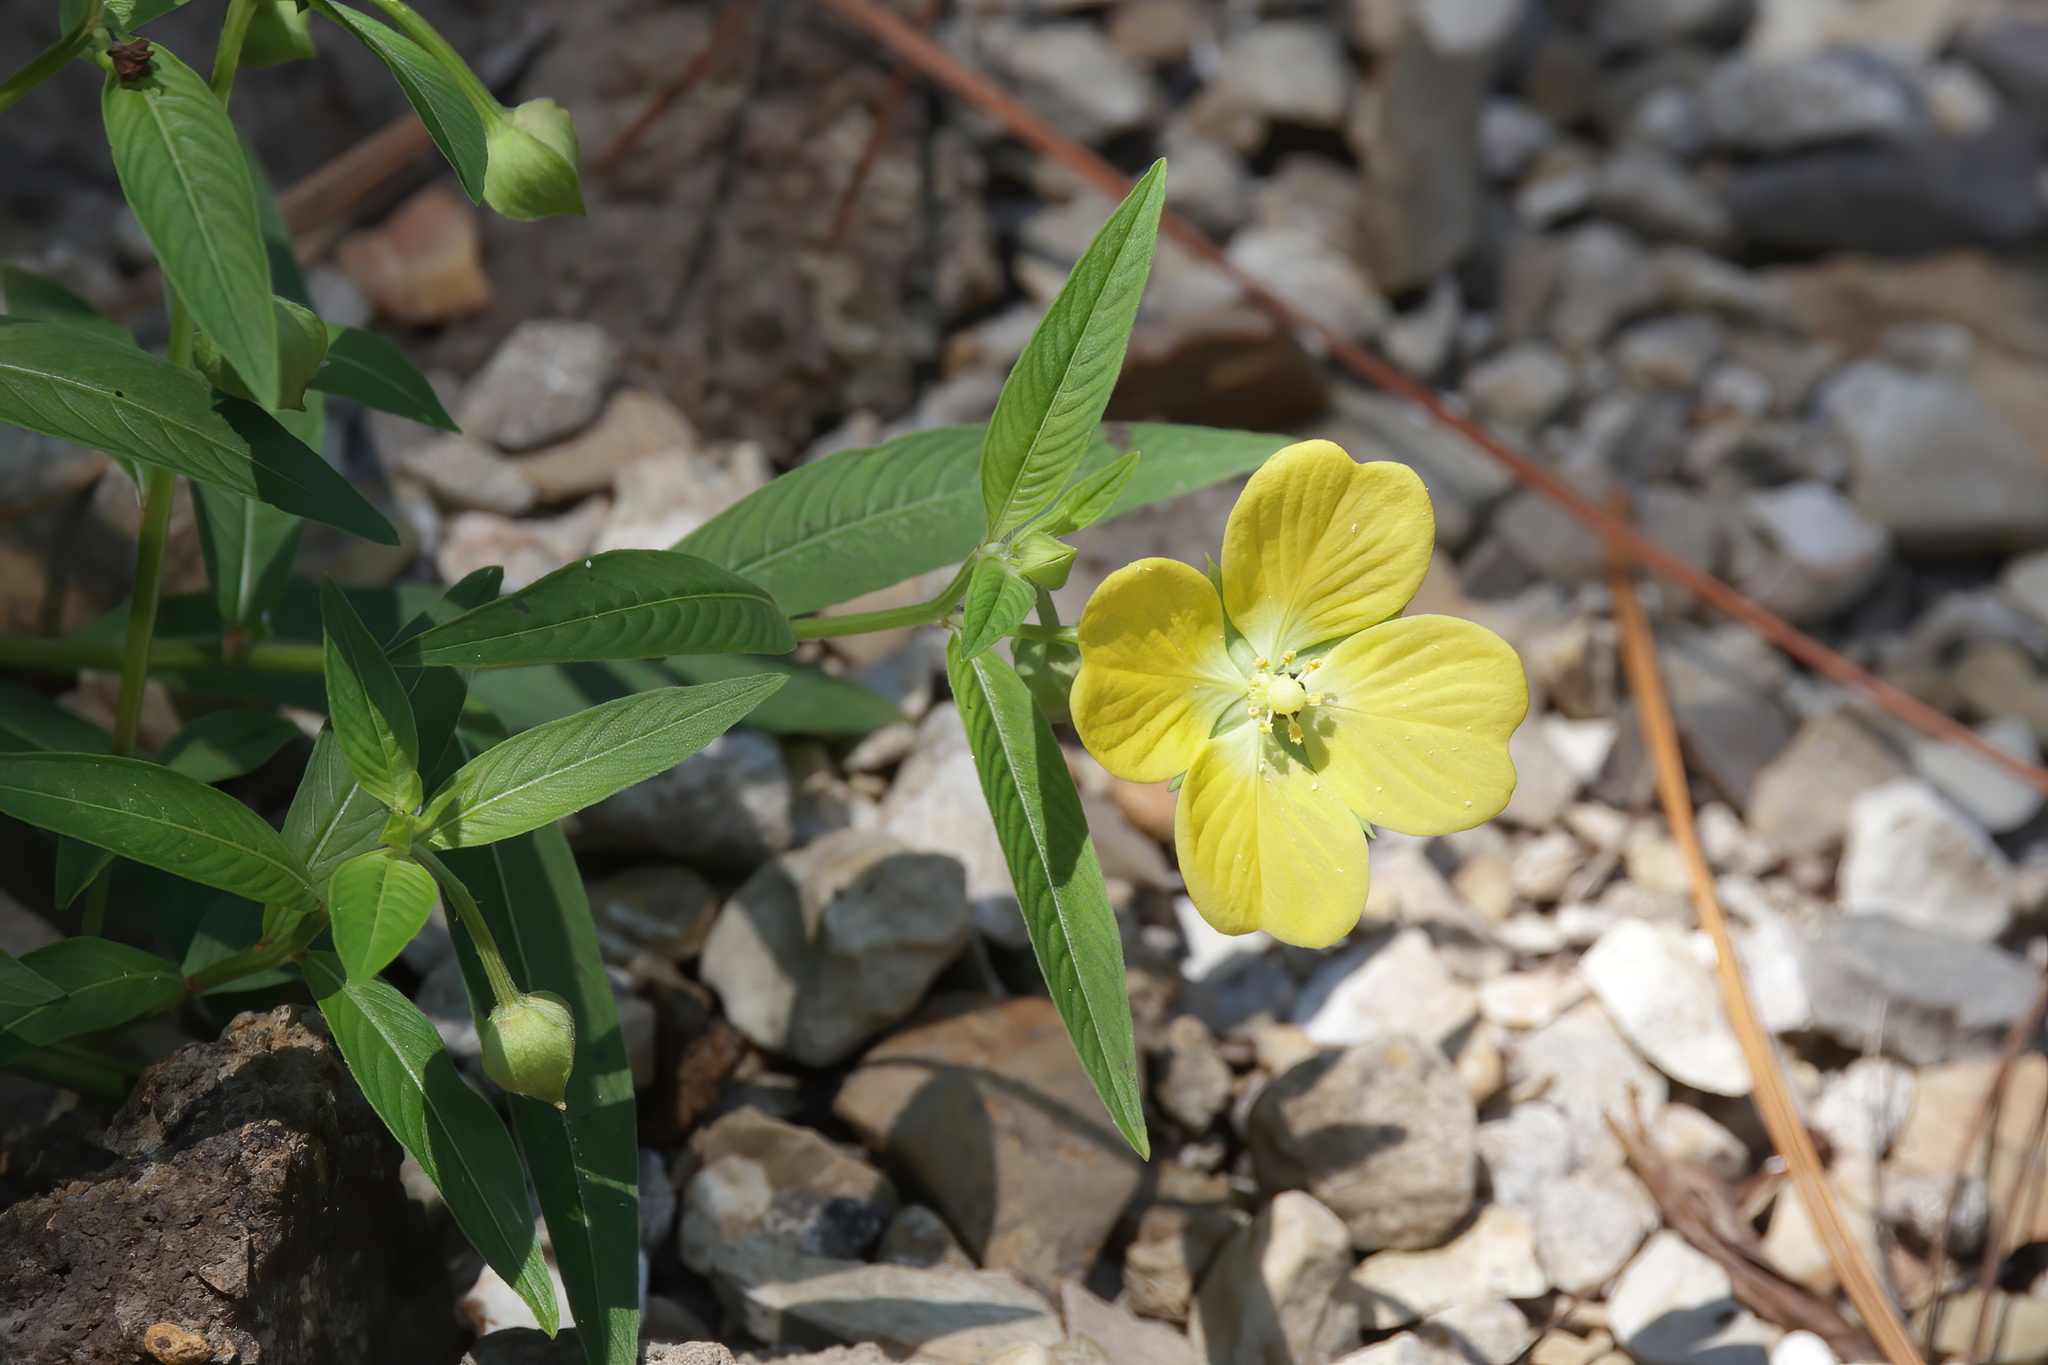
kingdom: Plantae
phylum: Tracheophyta
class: Magnoliopsida
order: Myrtales
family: Onagraceae
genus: Ludwigia
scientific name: Ludwigia octovalvis
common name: Water-primrose
